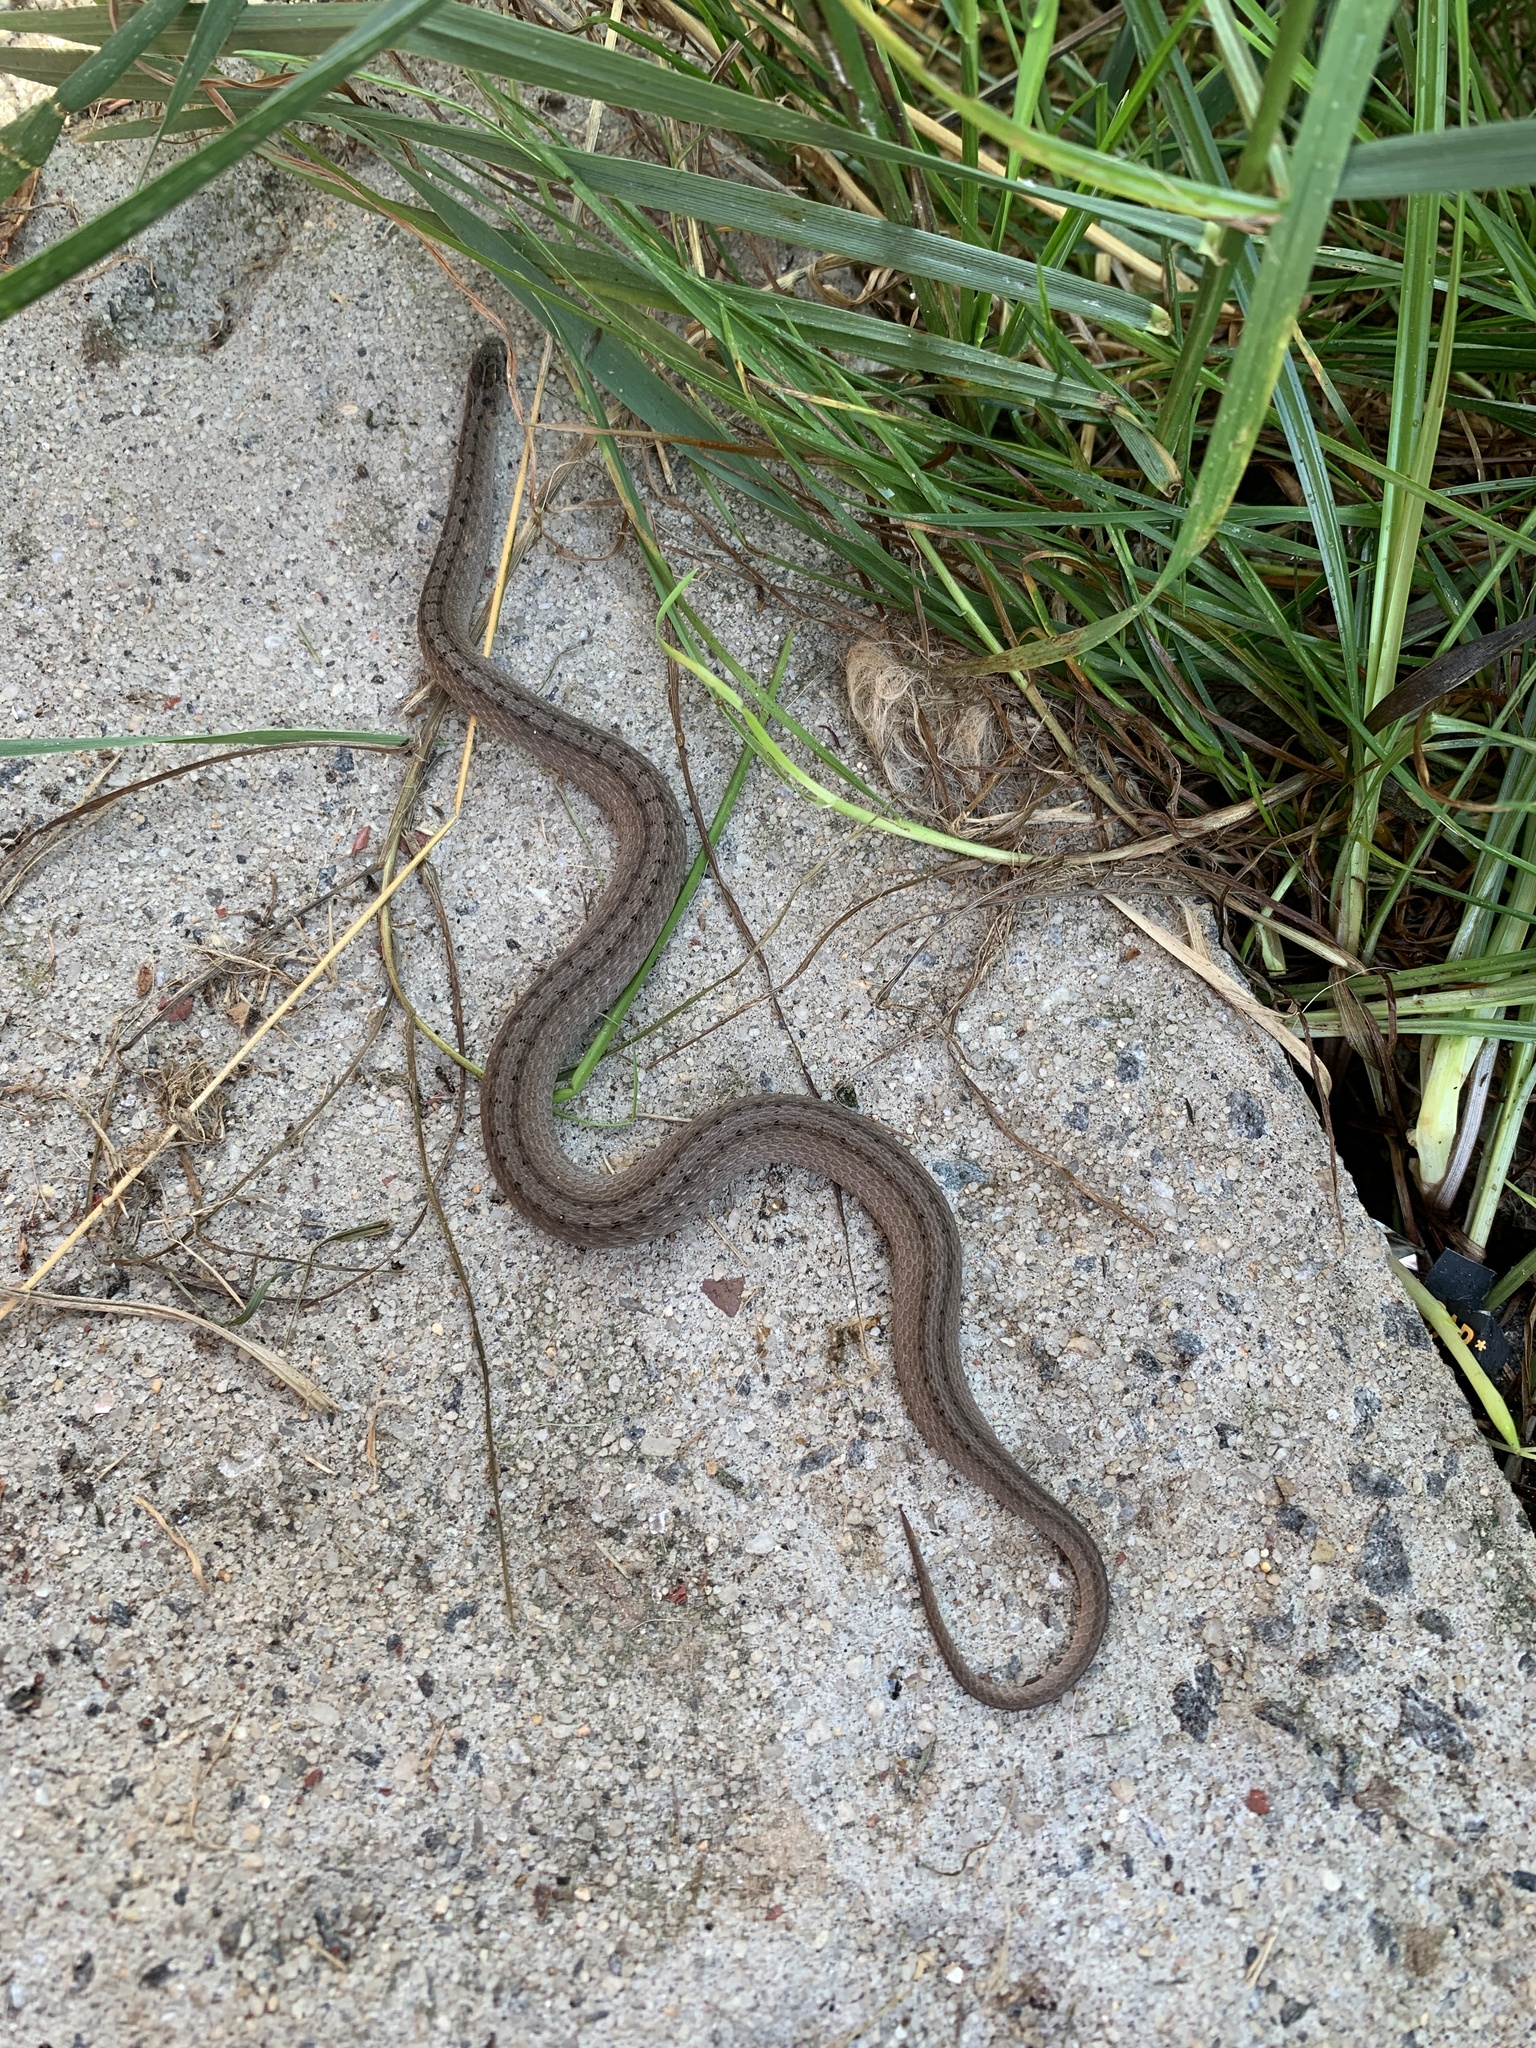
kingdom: Animalia
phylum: Chordata
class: Squamata
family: Colubridae
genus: Storeria
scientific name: Storeria dekayi
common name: (dekay’s) brown snake
